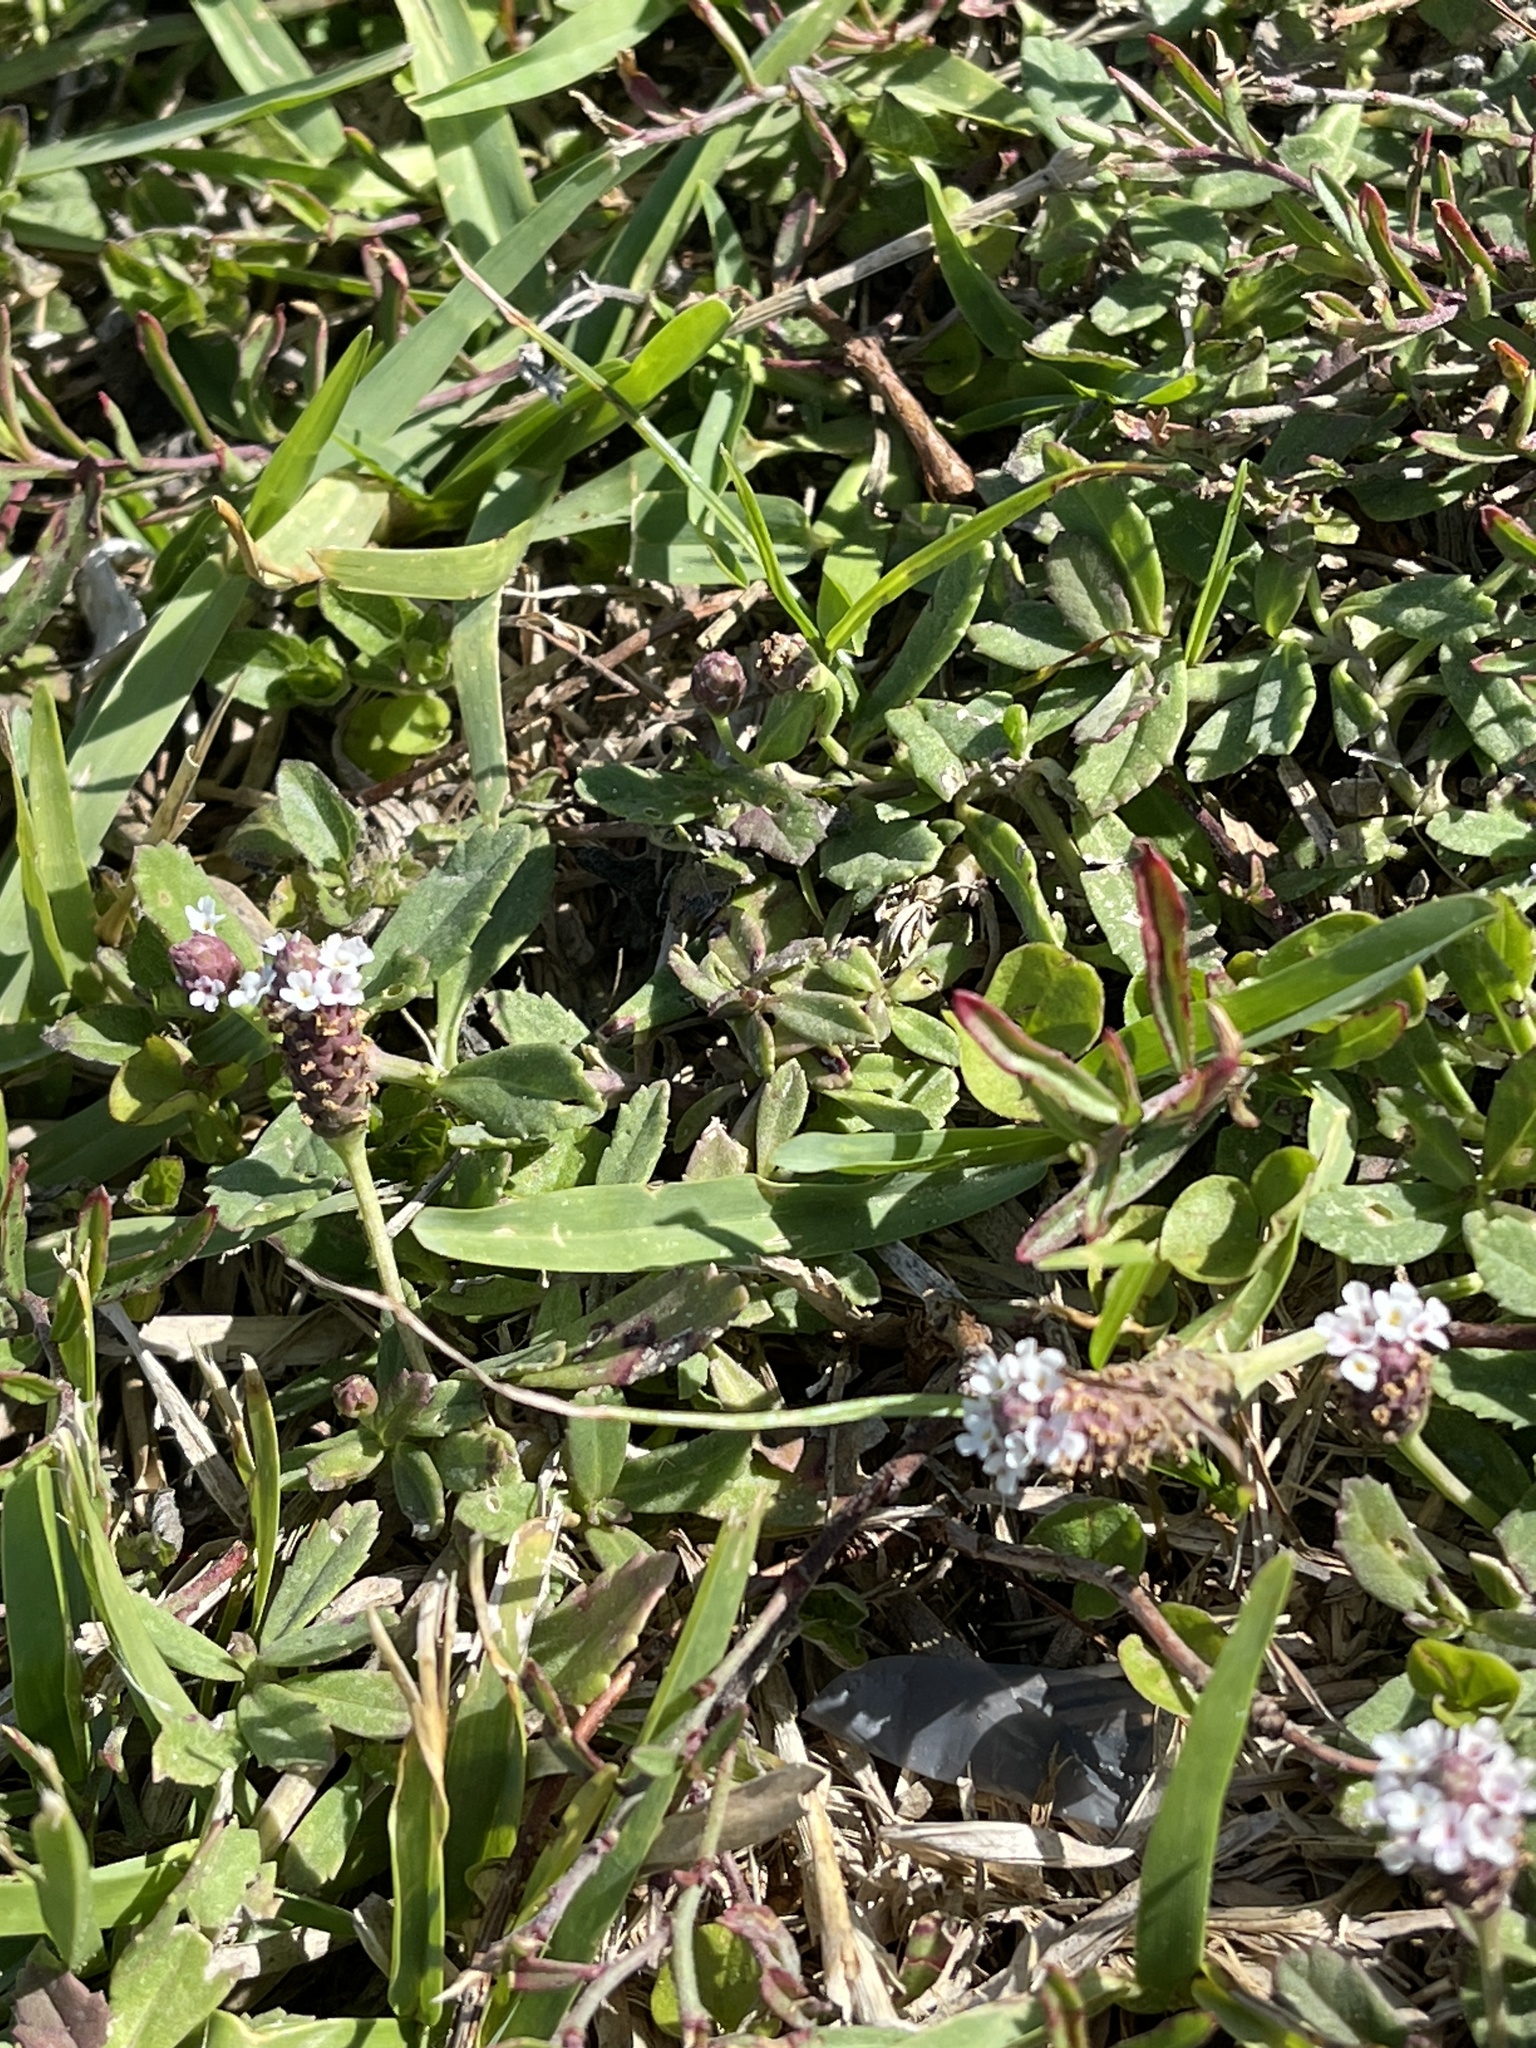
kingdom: Plantae
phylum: Tracheophyta
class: Magnoliopsida
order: Lamiales
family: Verbenaceae
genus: Phyla
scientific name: Phyla nodiflora
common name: Frogfruit
